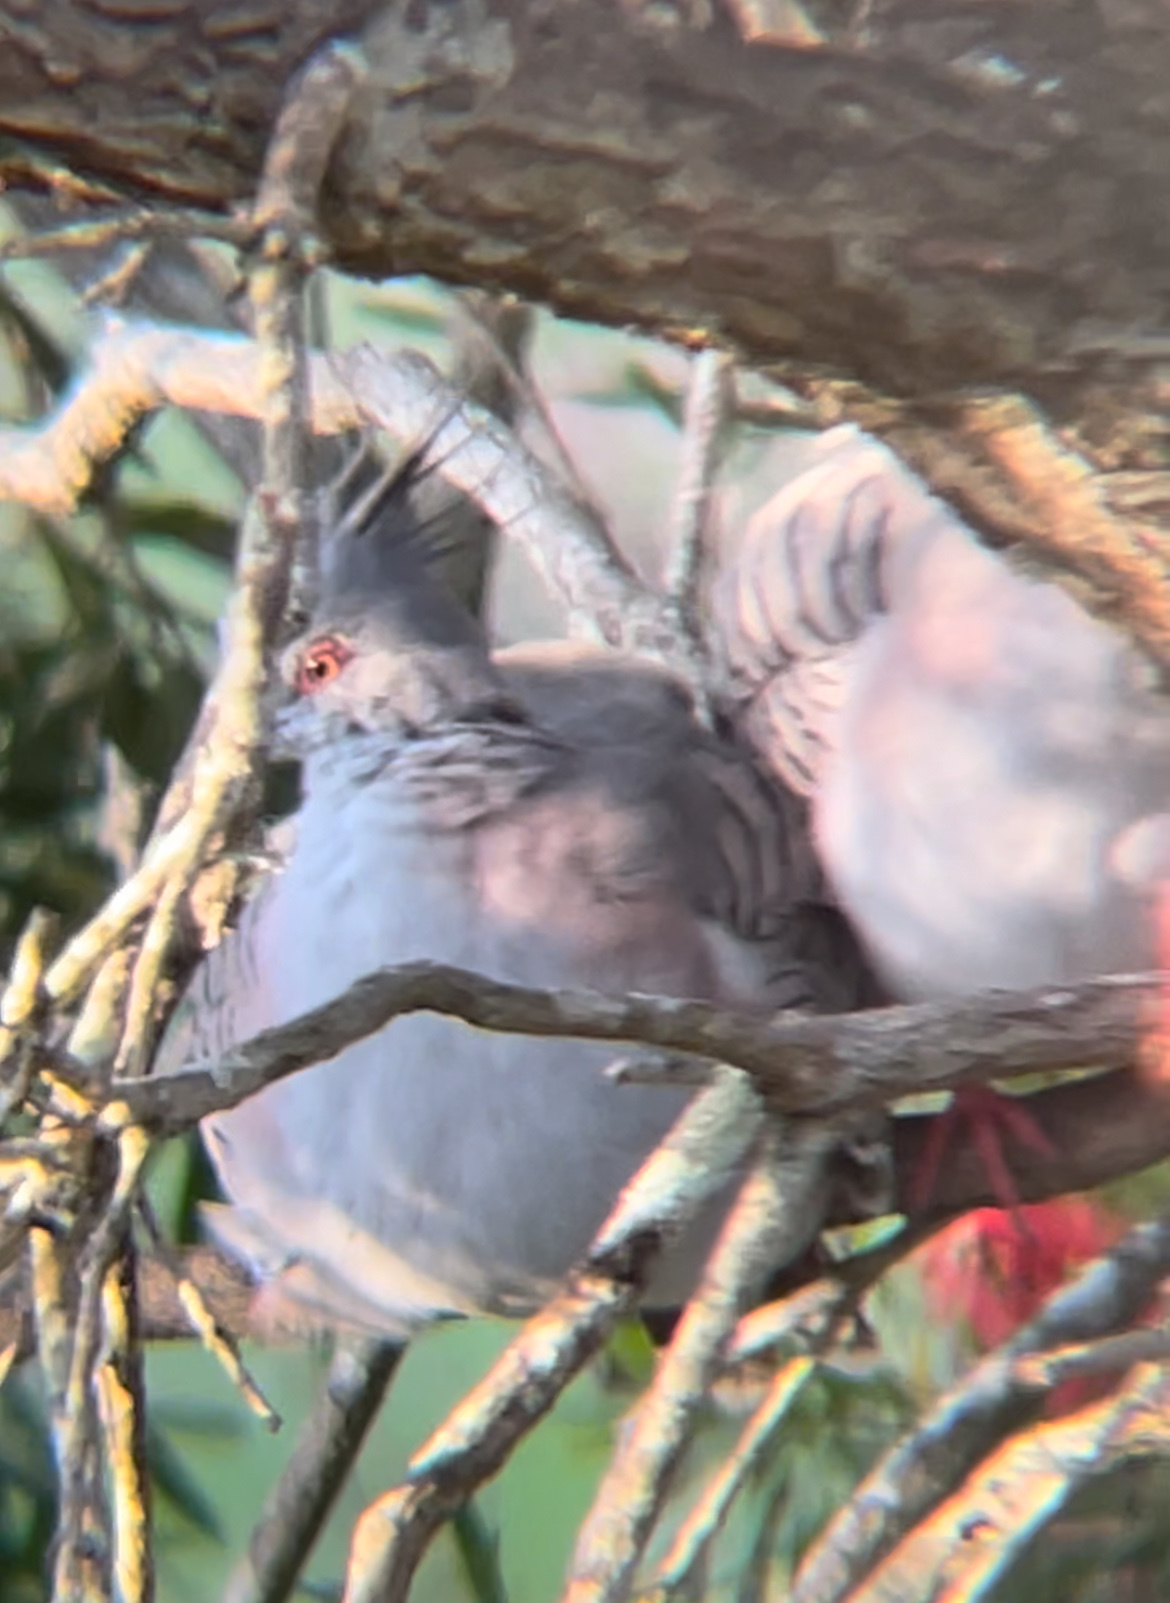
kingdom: Animalia
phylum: Chordata
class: Aves
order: Columbiformes
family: Columbidae
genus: Ocyphaps
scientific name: Ocyphaps lophotes
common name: Crested pigeon
